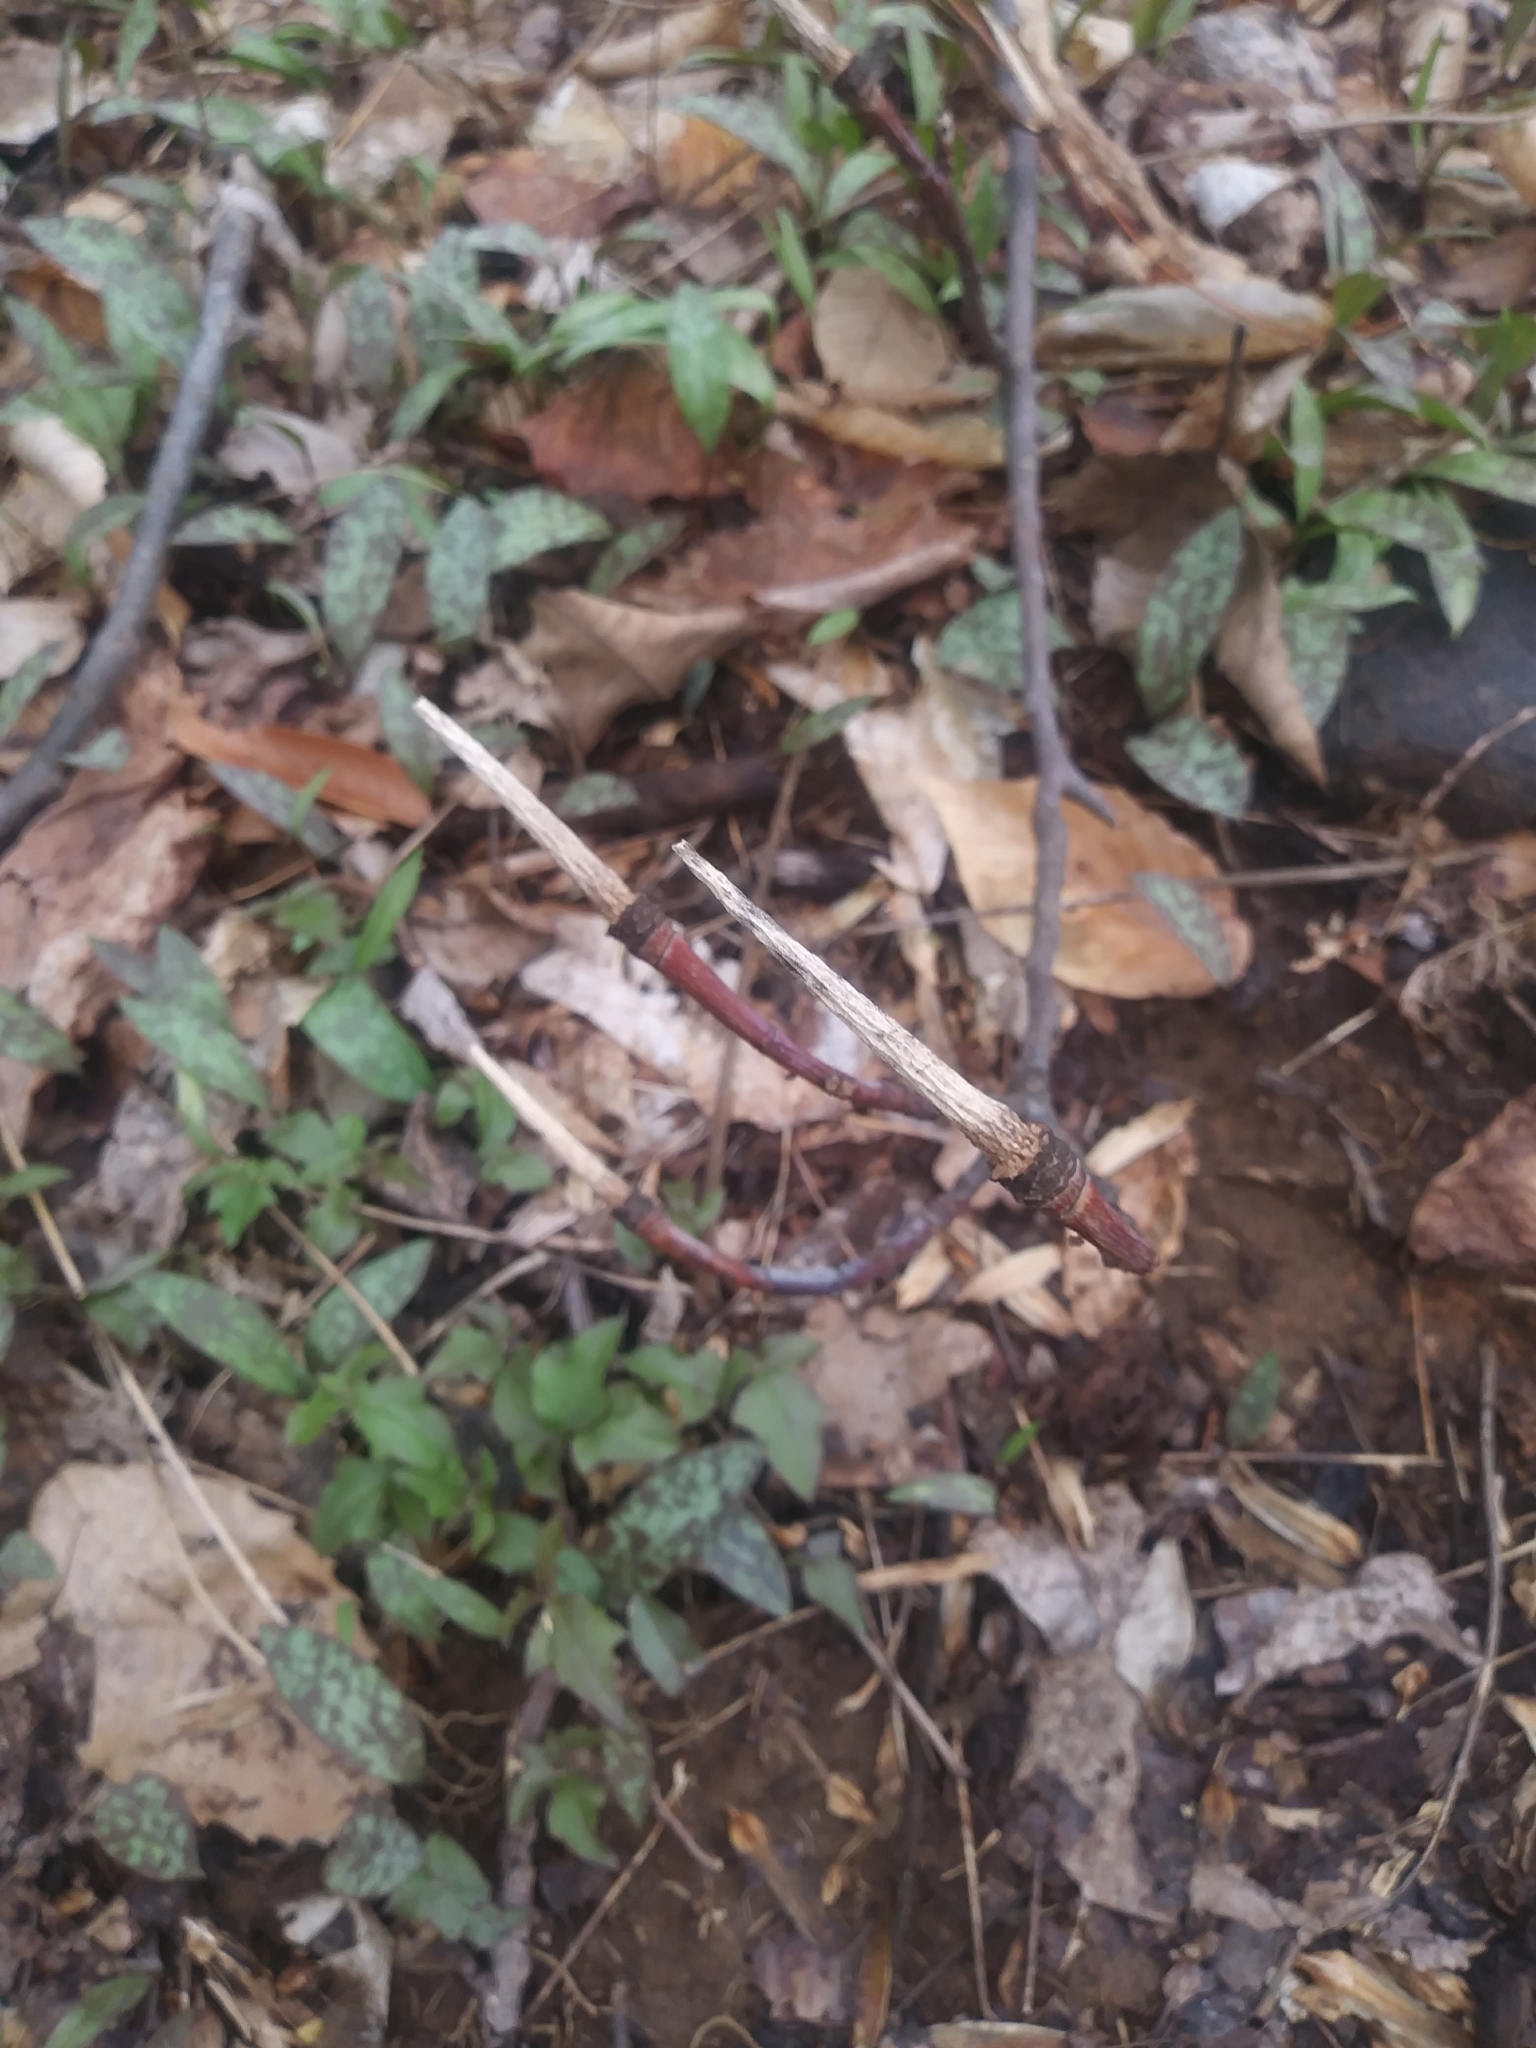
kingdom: Plantae
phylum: Tracheophyta
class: Magnoliopsida
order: Magnoliales
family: Magnoliaceae
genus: Liriodendron
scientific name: Liriodendron tulipifera
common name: Tulip tree
